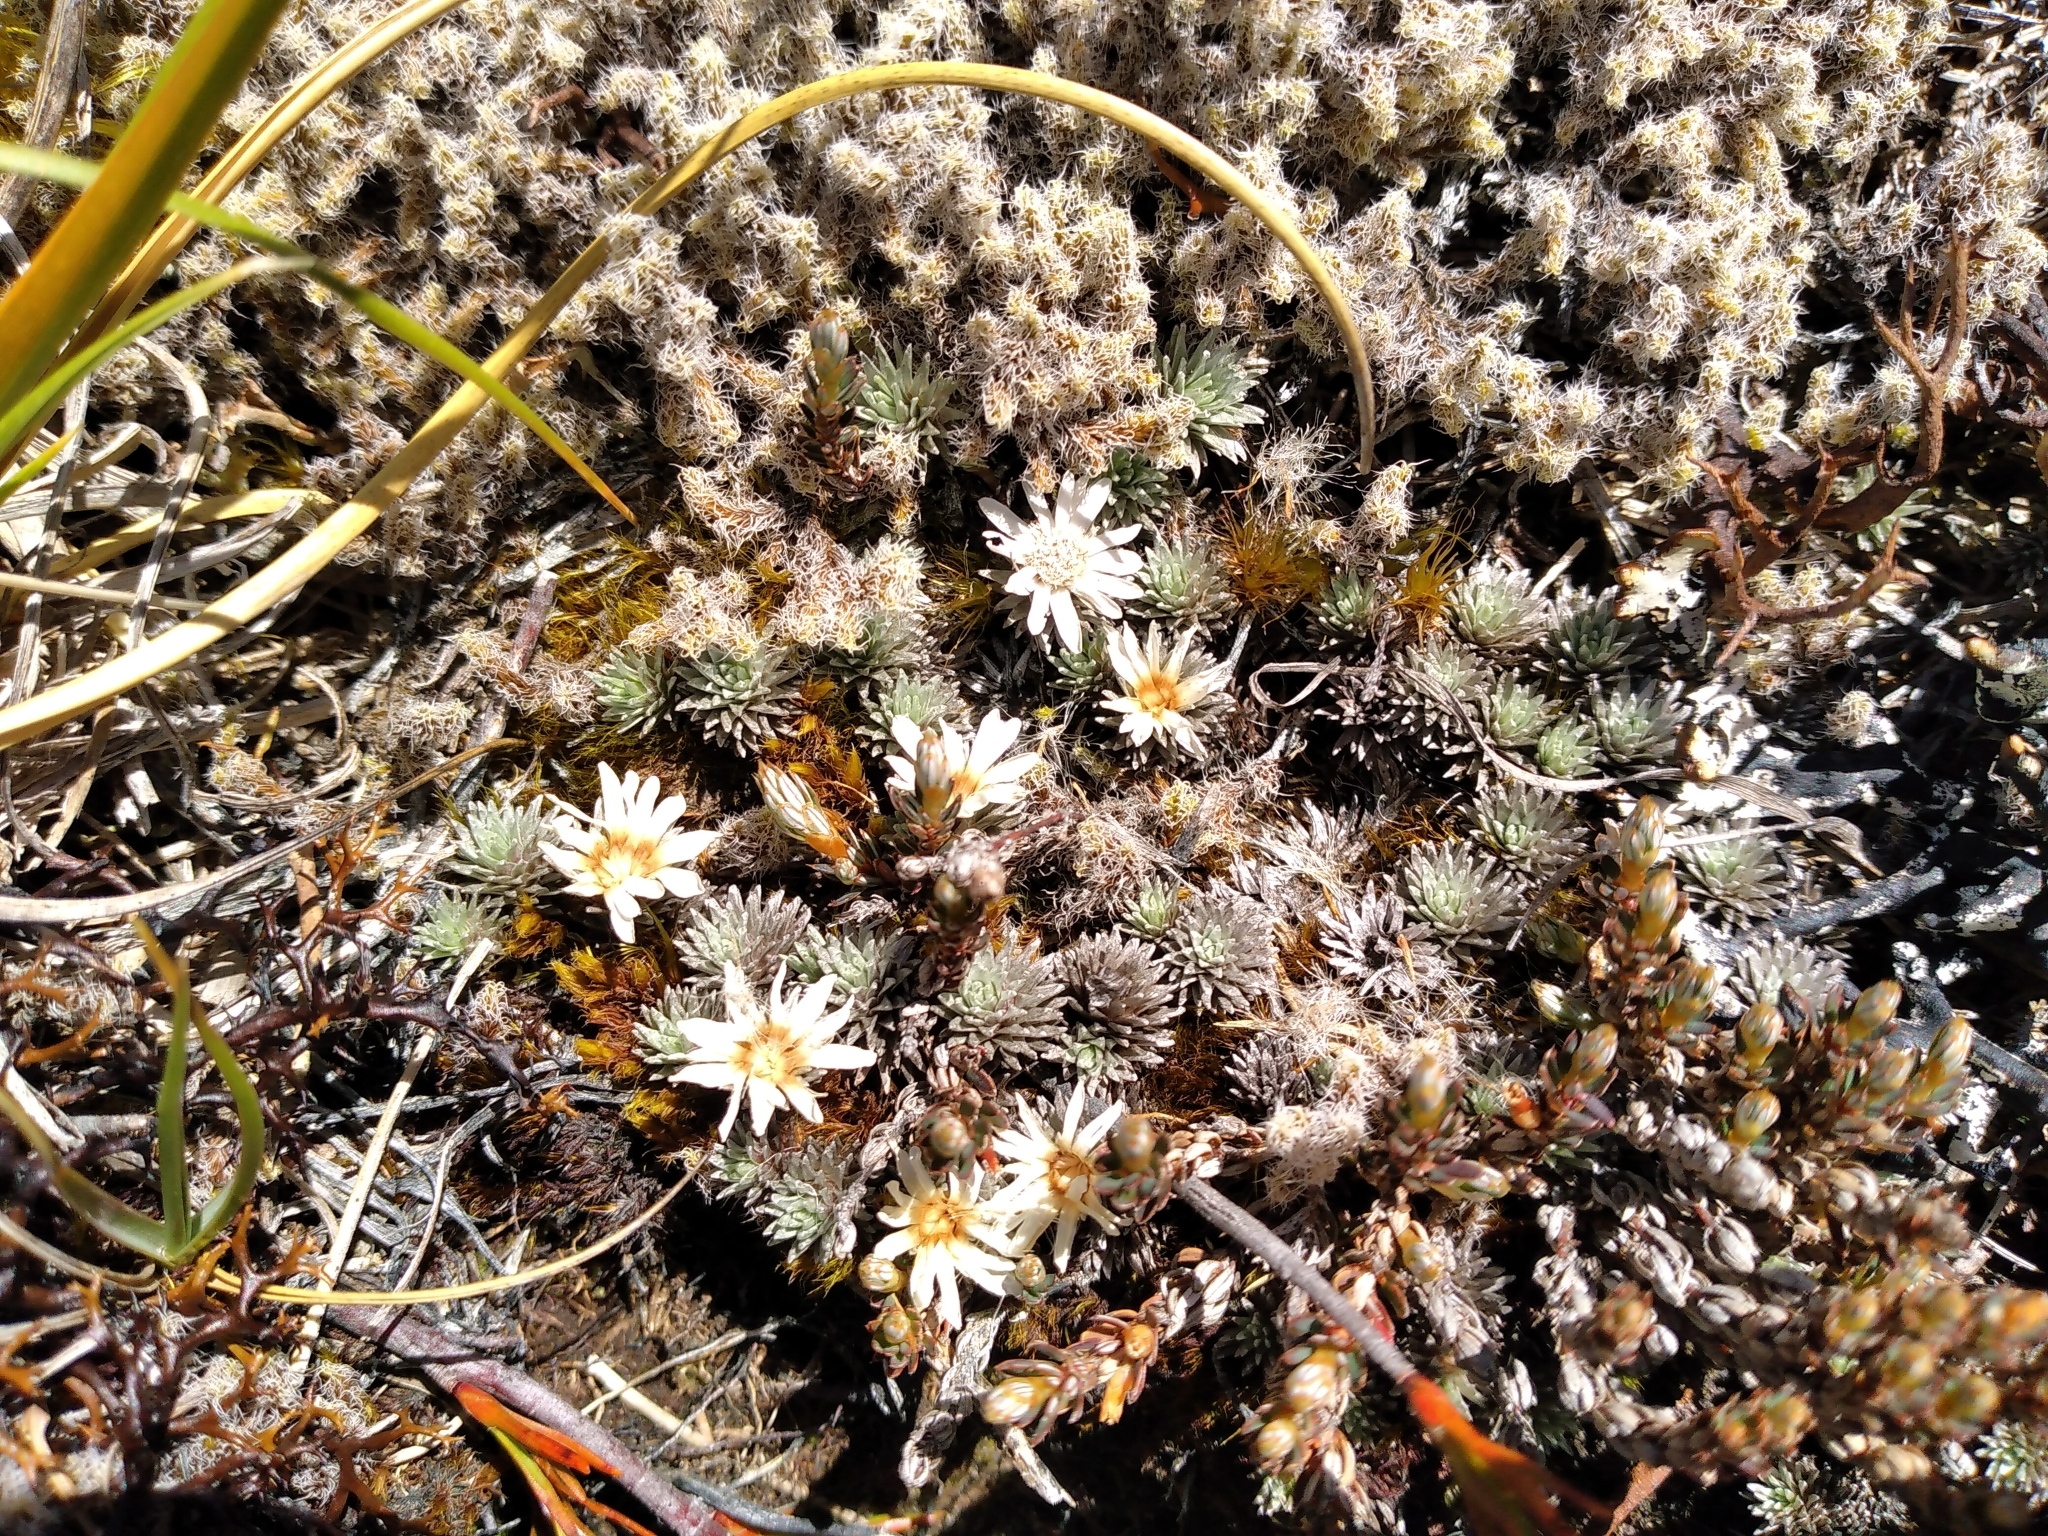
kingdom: Plantae
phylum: Tracheophyta
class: Magnoliopsida
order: Asterales
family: Asteraceae
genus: Raoulia
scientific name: Raoulia grandiflora
